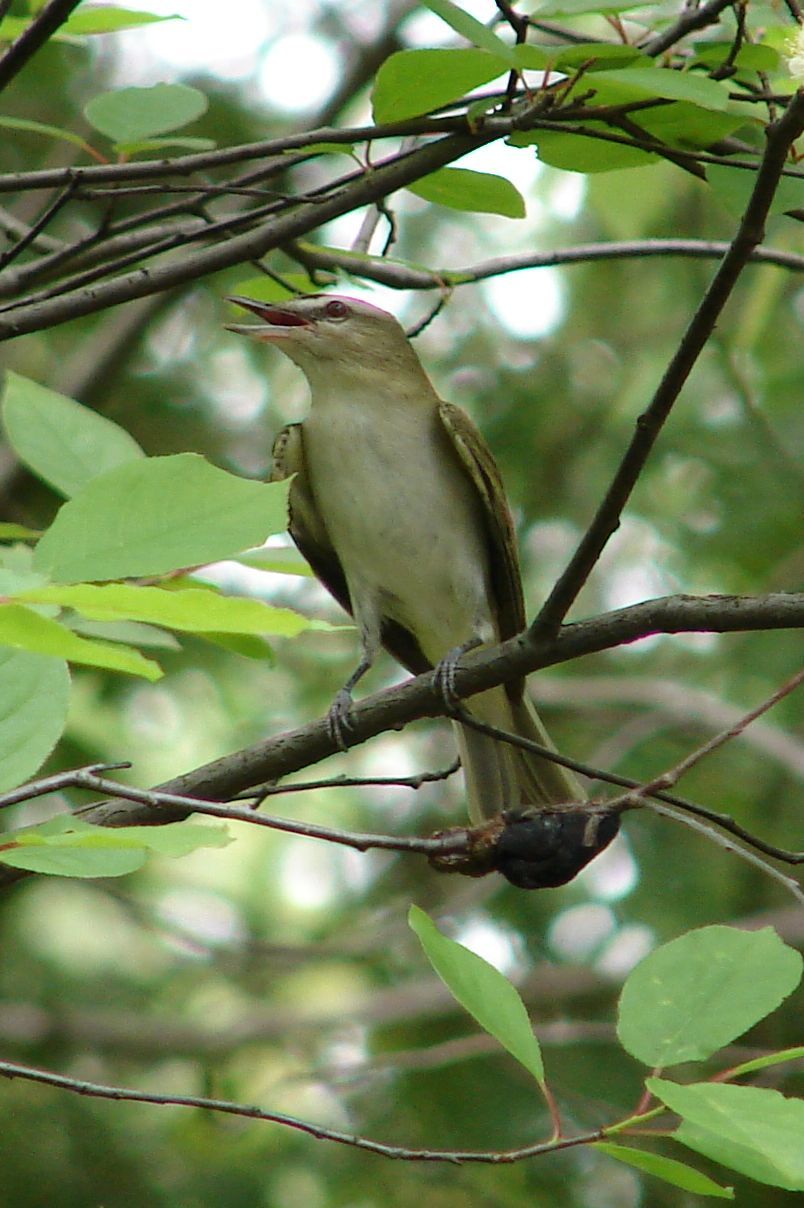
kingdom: Animalia
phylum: Chordata
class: Aves
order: Passeriformes
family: Vireonidae
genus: Vireo
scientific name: Vireo olivaceus
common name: Red-eyed vireo
